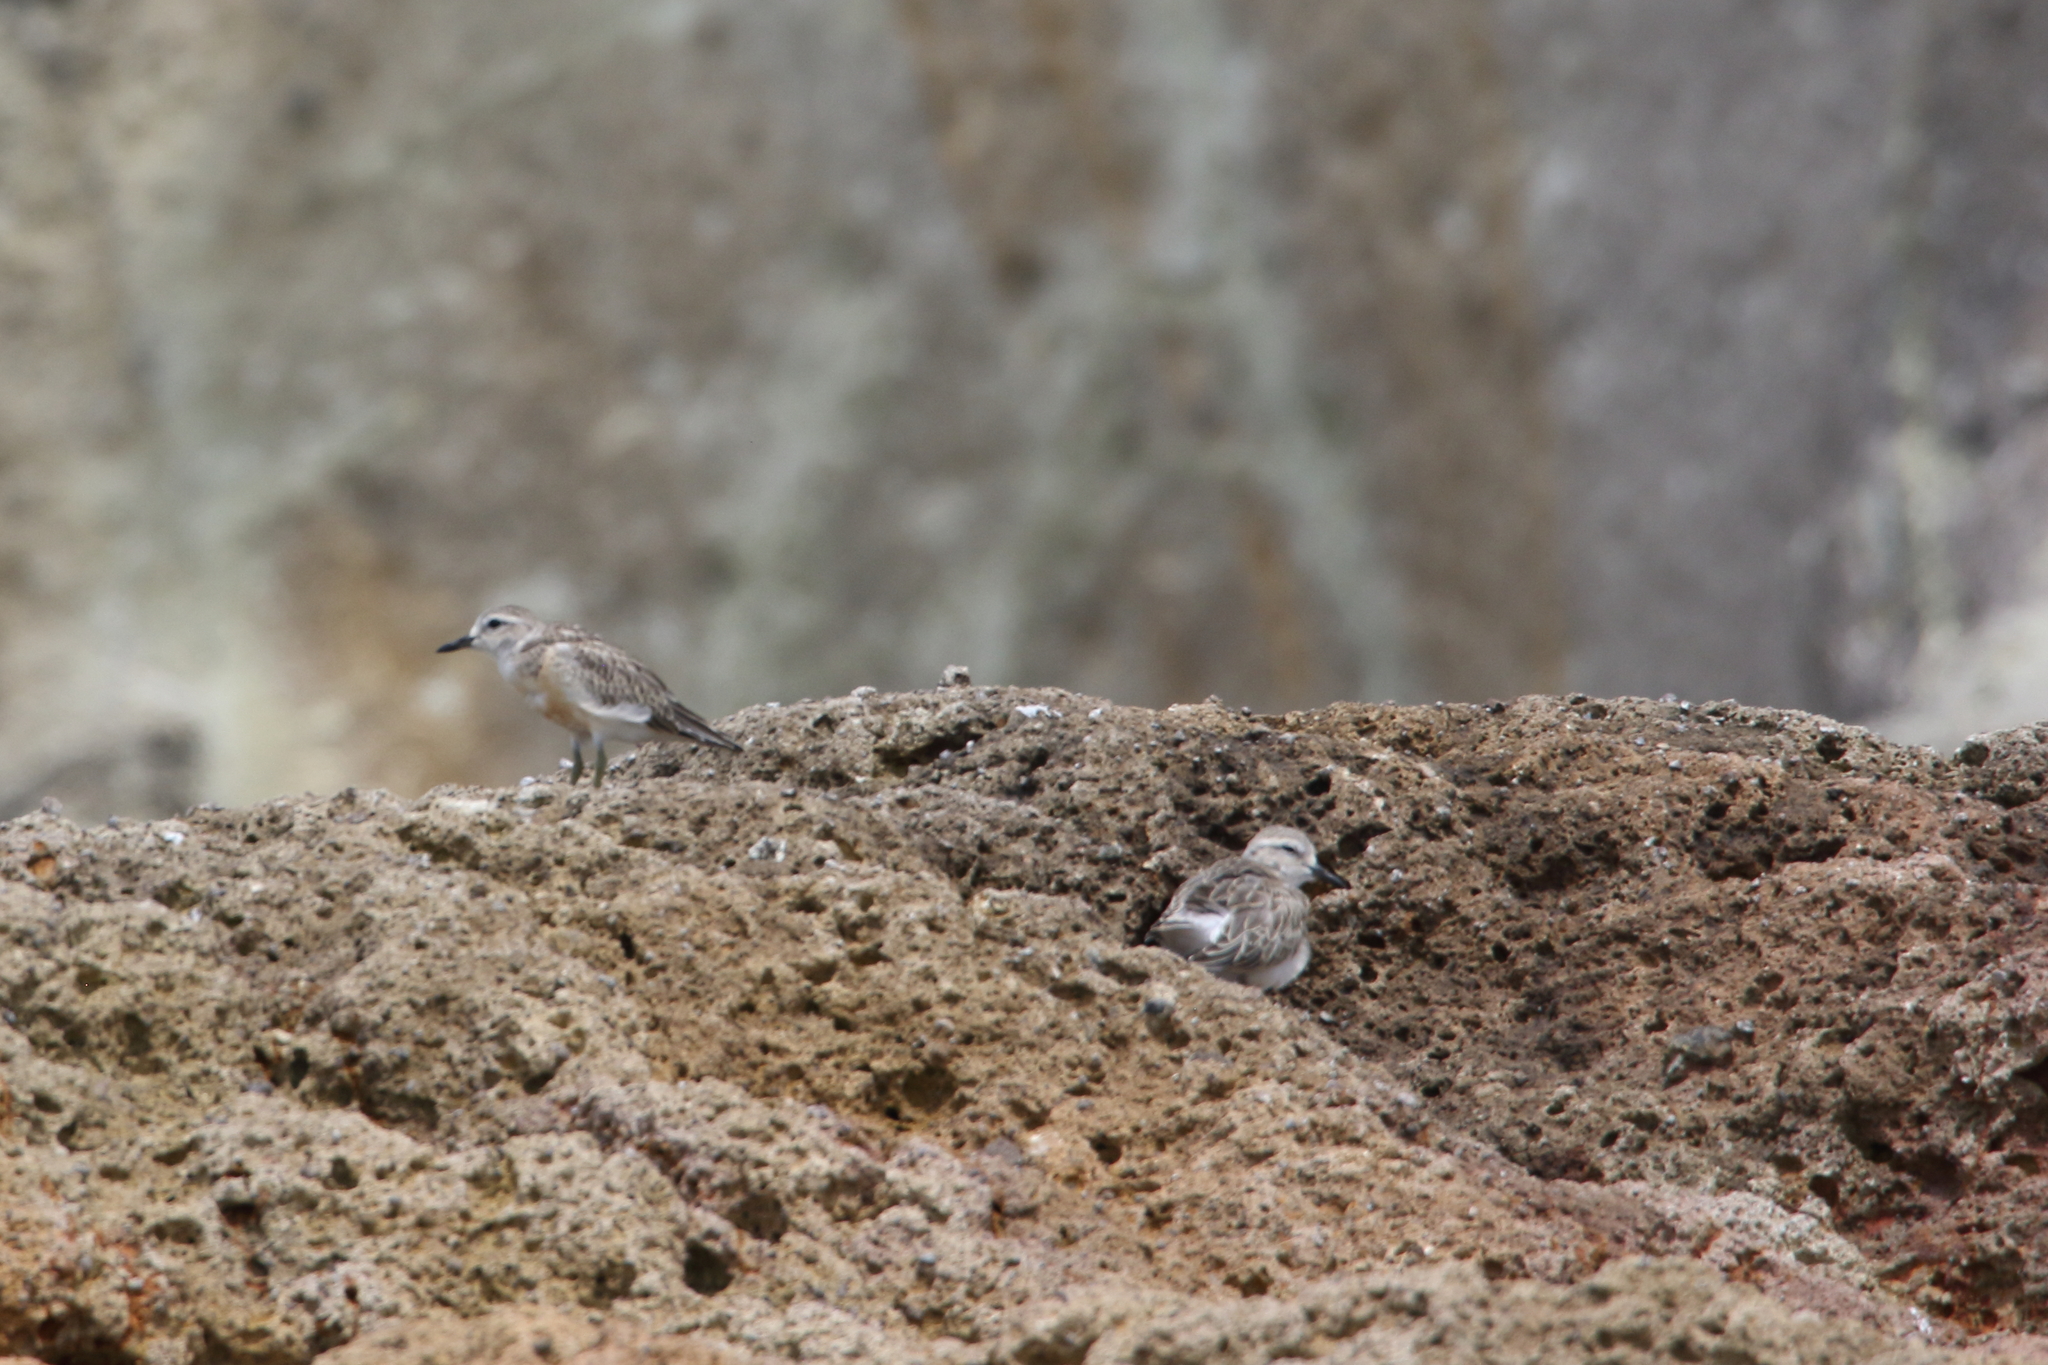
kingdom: Animalia
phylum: Chordata
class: Aves
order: Charadriiformes
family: Charadriidae
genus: Anarhynchus
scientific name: Anarhynchus
